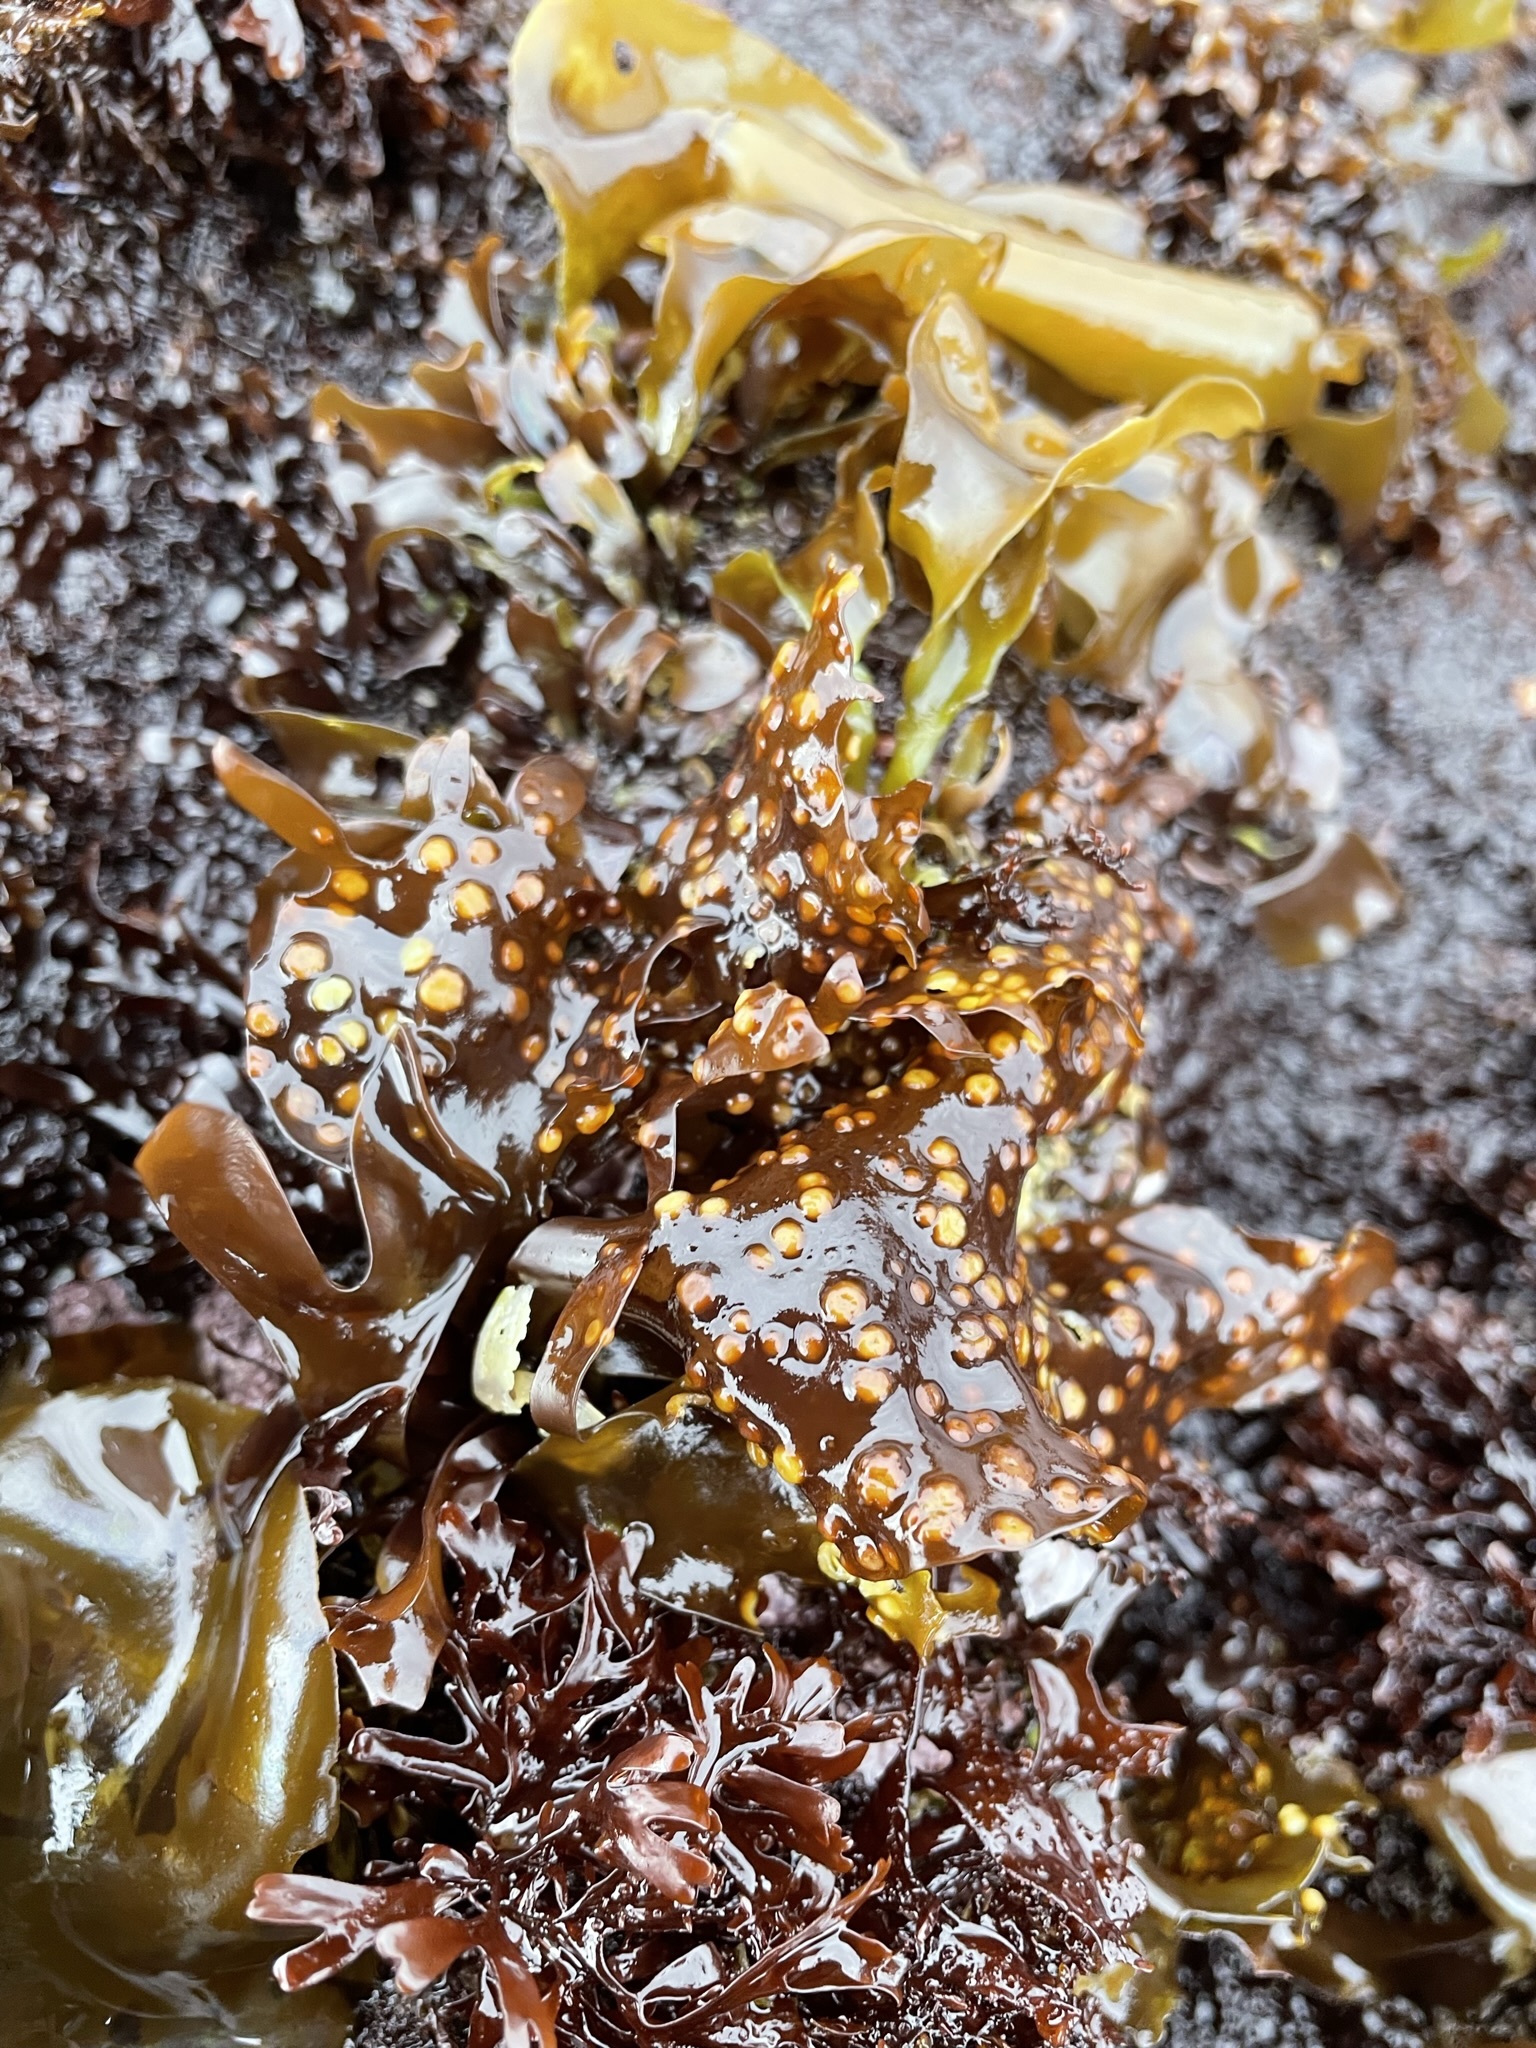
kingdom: Plantae
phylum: Rhodophyta
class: Florideophyceae
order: Gigartinales
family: Gigartinaceae
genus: Mazzaella
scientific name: Mazzaella oregona
